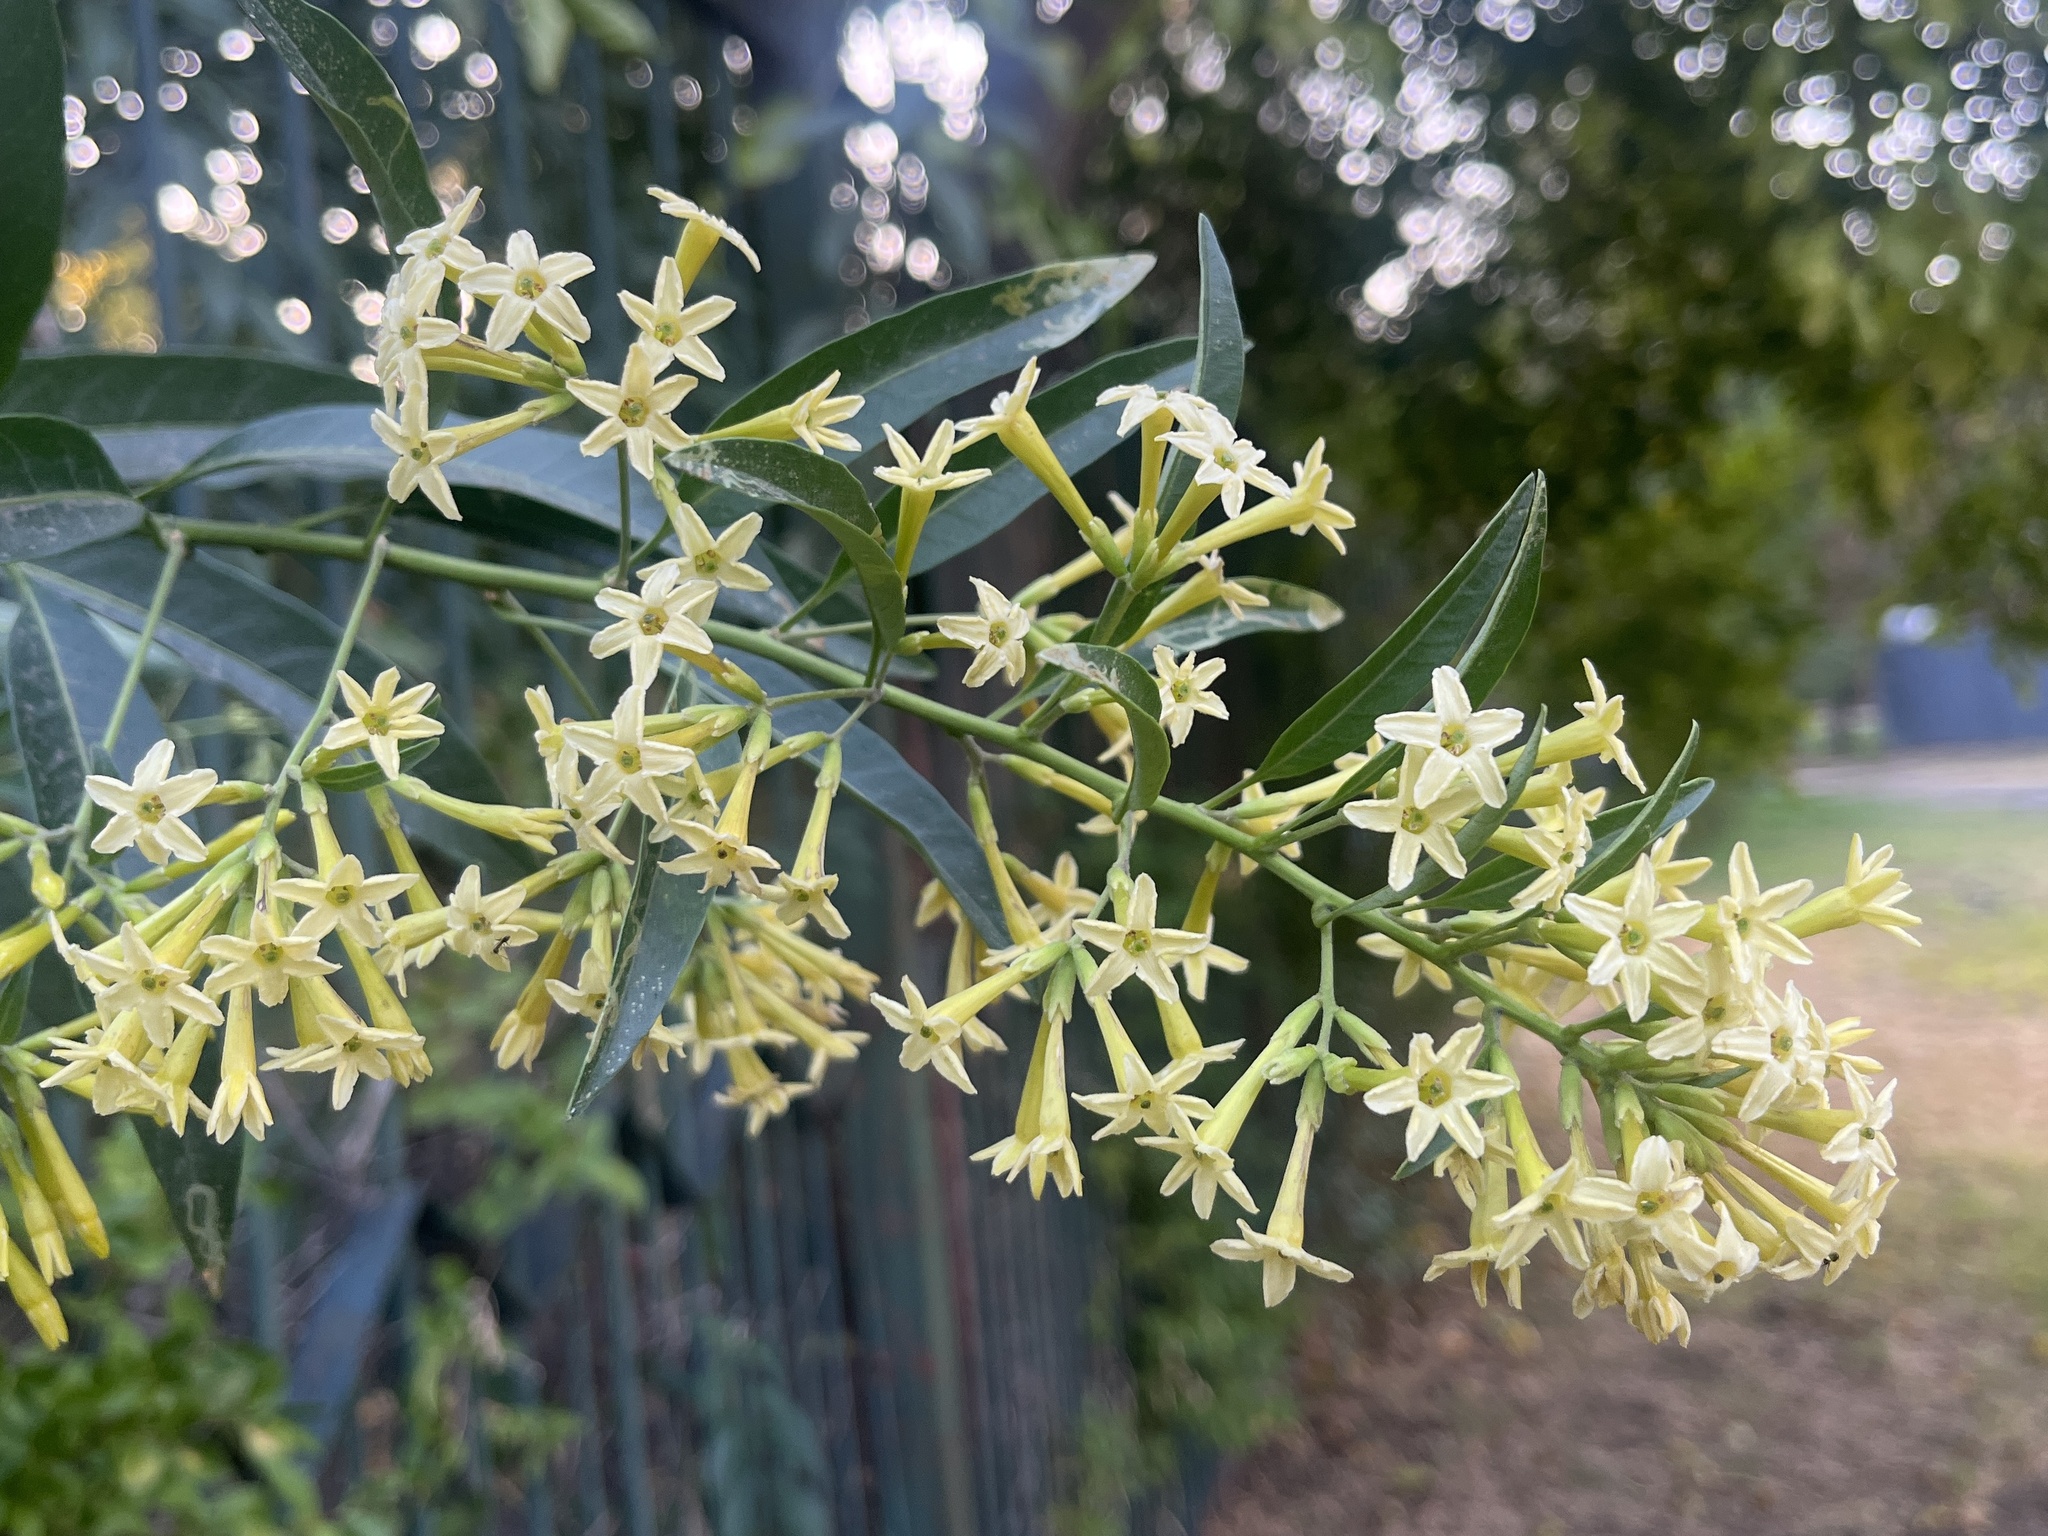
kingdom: Plantae
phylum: Tracheophyta
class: Magnoliopsida
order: Solanales
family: Solanaceae
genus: Cestrum
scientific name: Cestrum parqui
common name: Chilean cestrum
